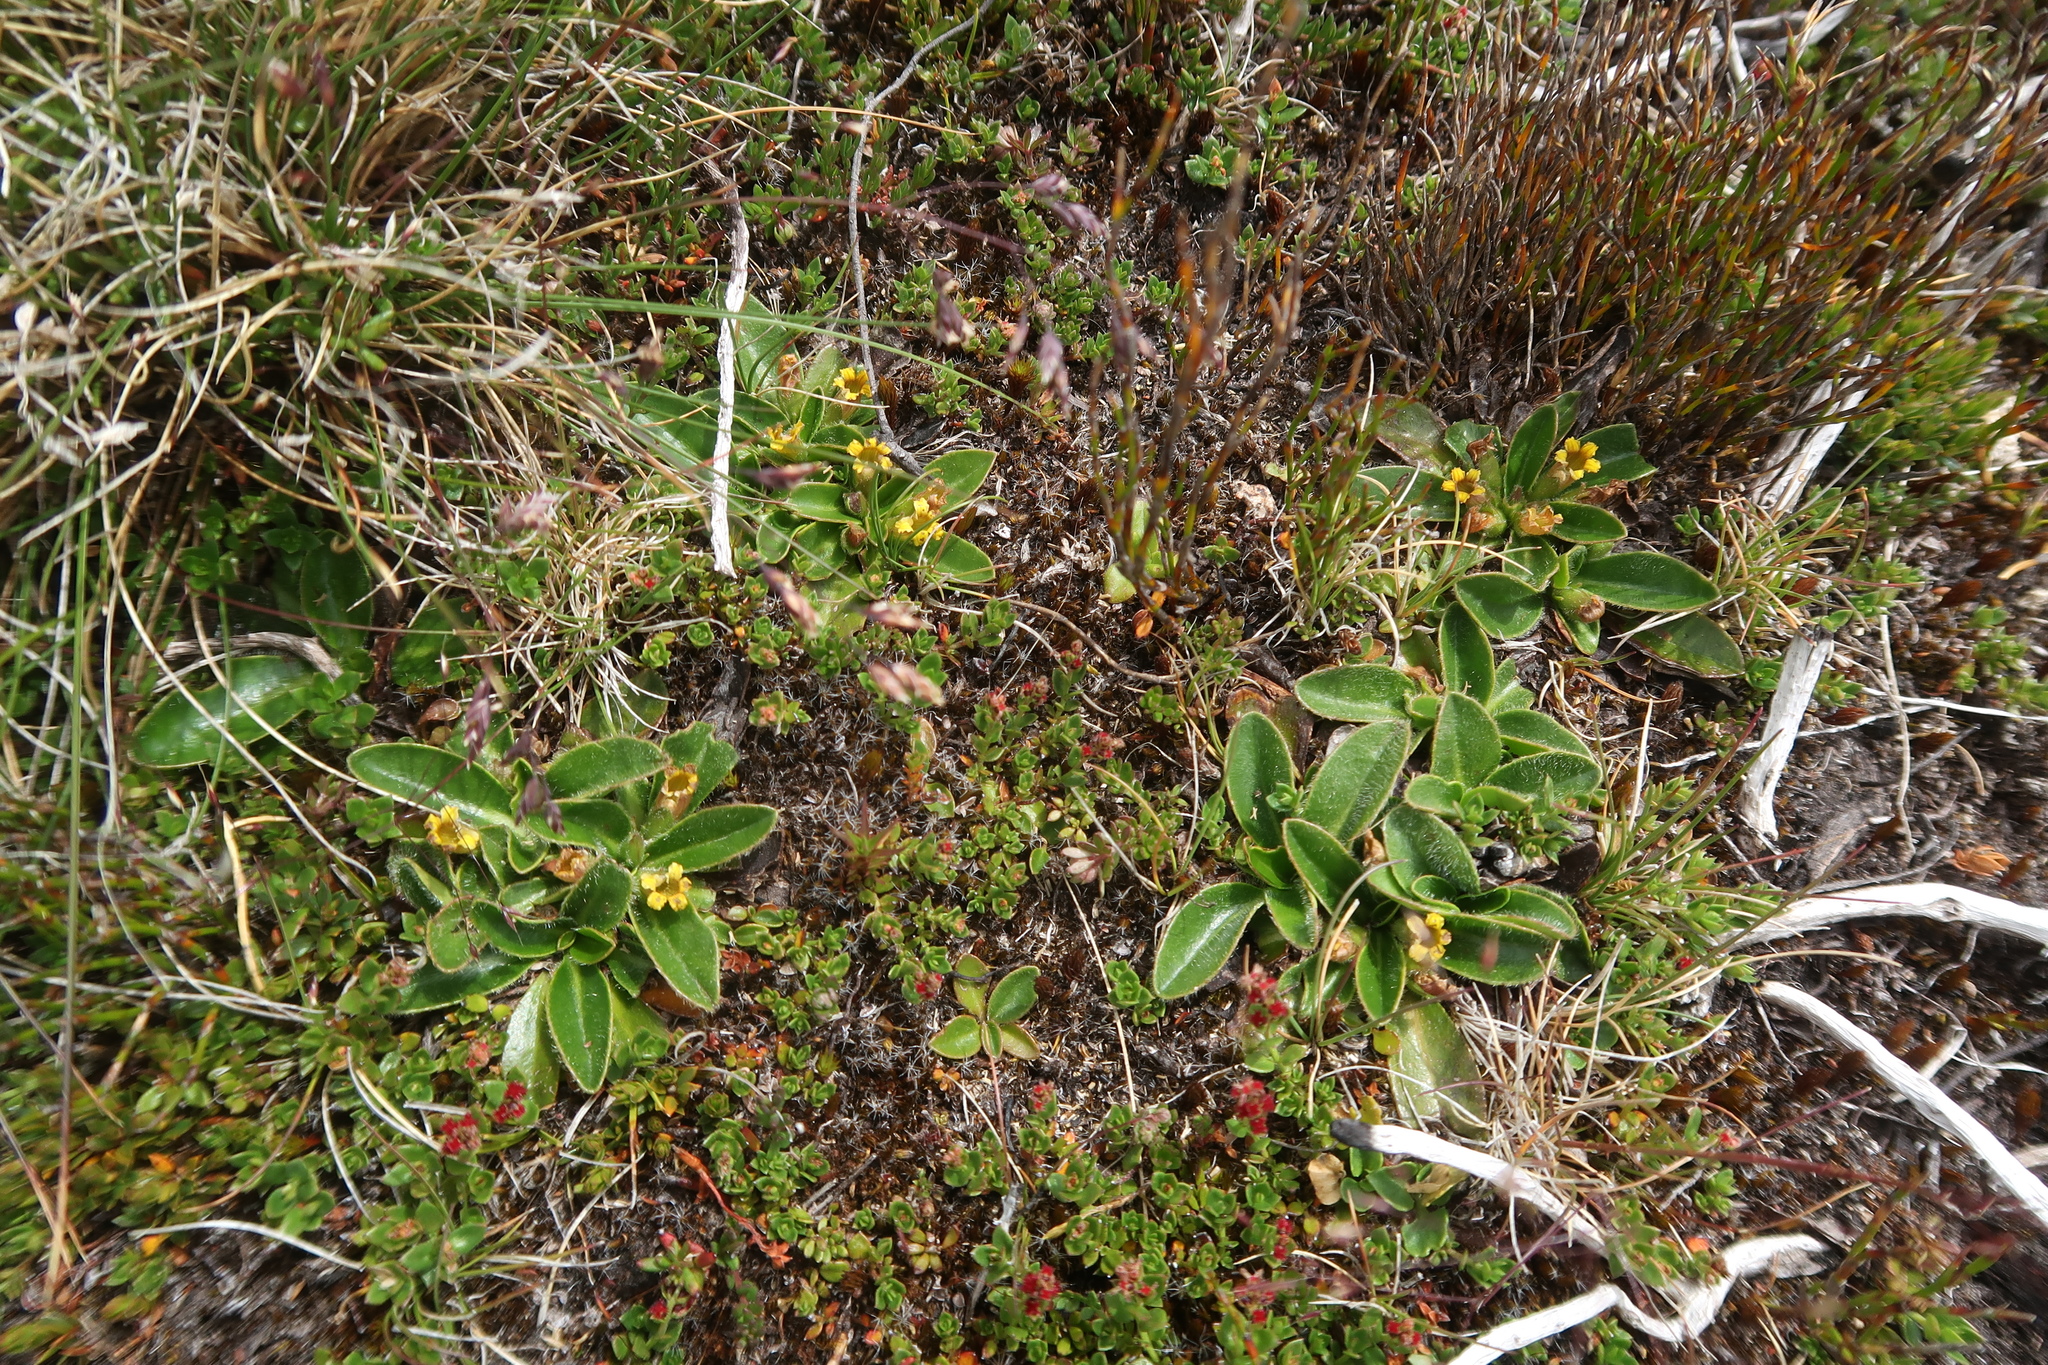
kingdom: Plantae
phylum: Tracheophyta
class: Magnoliopsida
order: Asterales
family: Goodeniaceae
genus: Goodenia
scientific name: Goodenia montana
